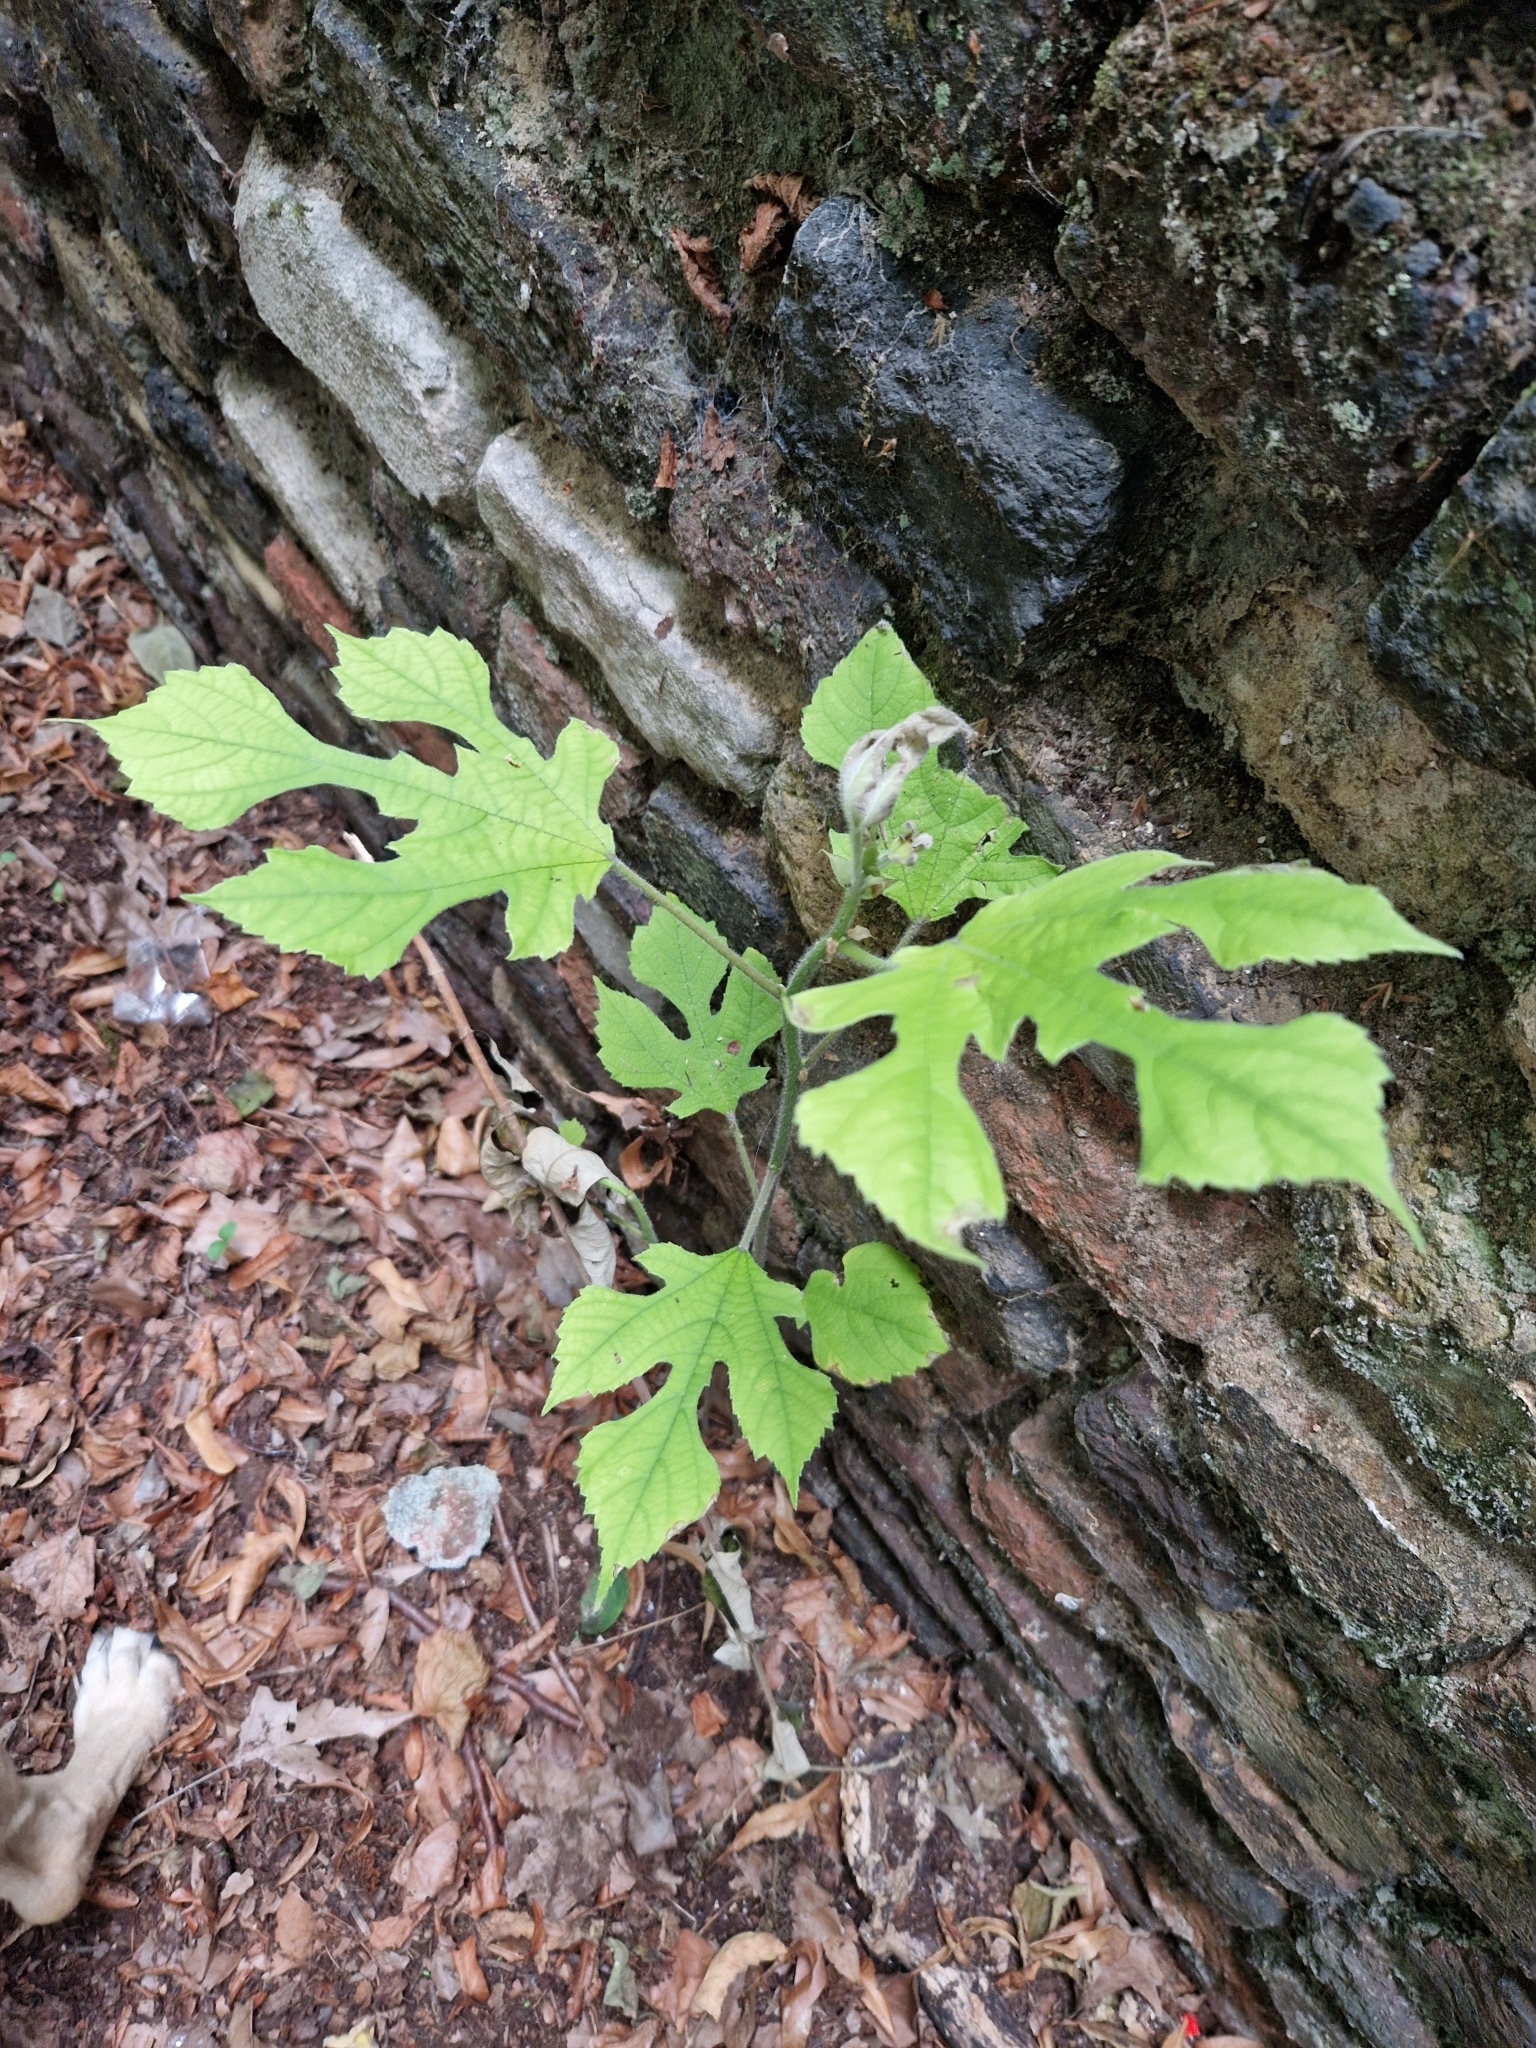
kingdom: Plantae
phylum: Tracheophyta
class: Magnoliopsida
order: Rosales
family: Moraceae
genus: Broussonetia
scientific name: Broussonetia papyrifera
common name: Paper mulberry
